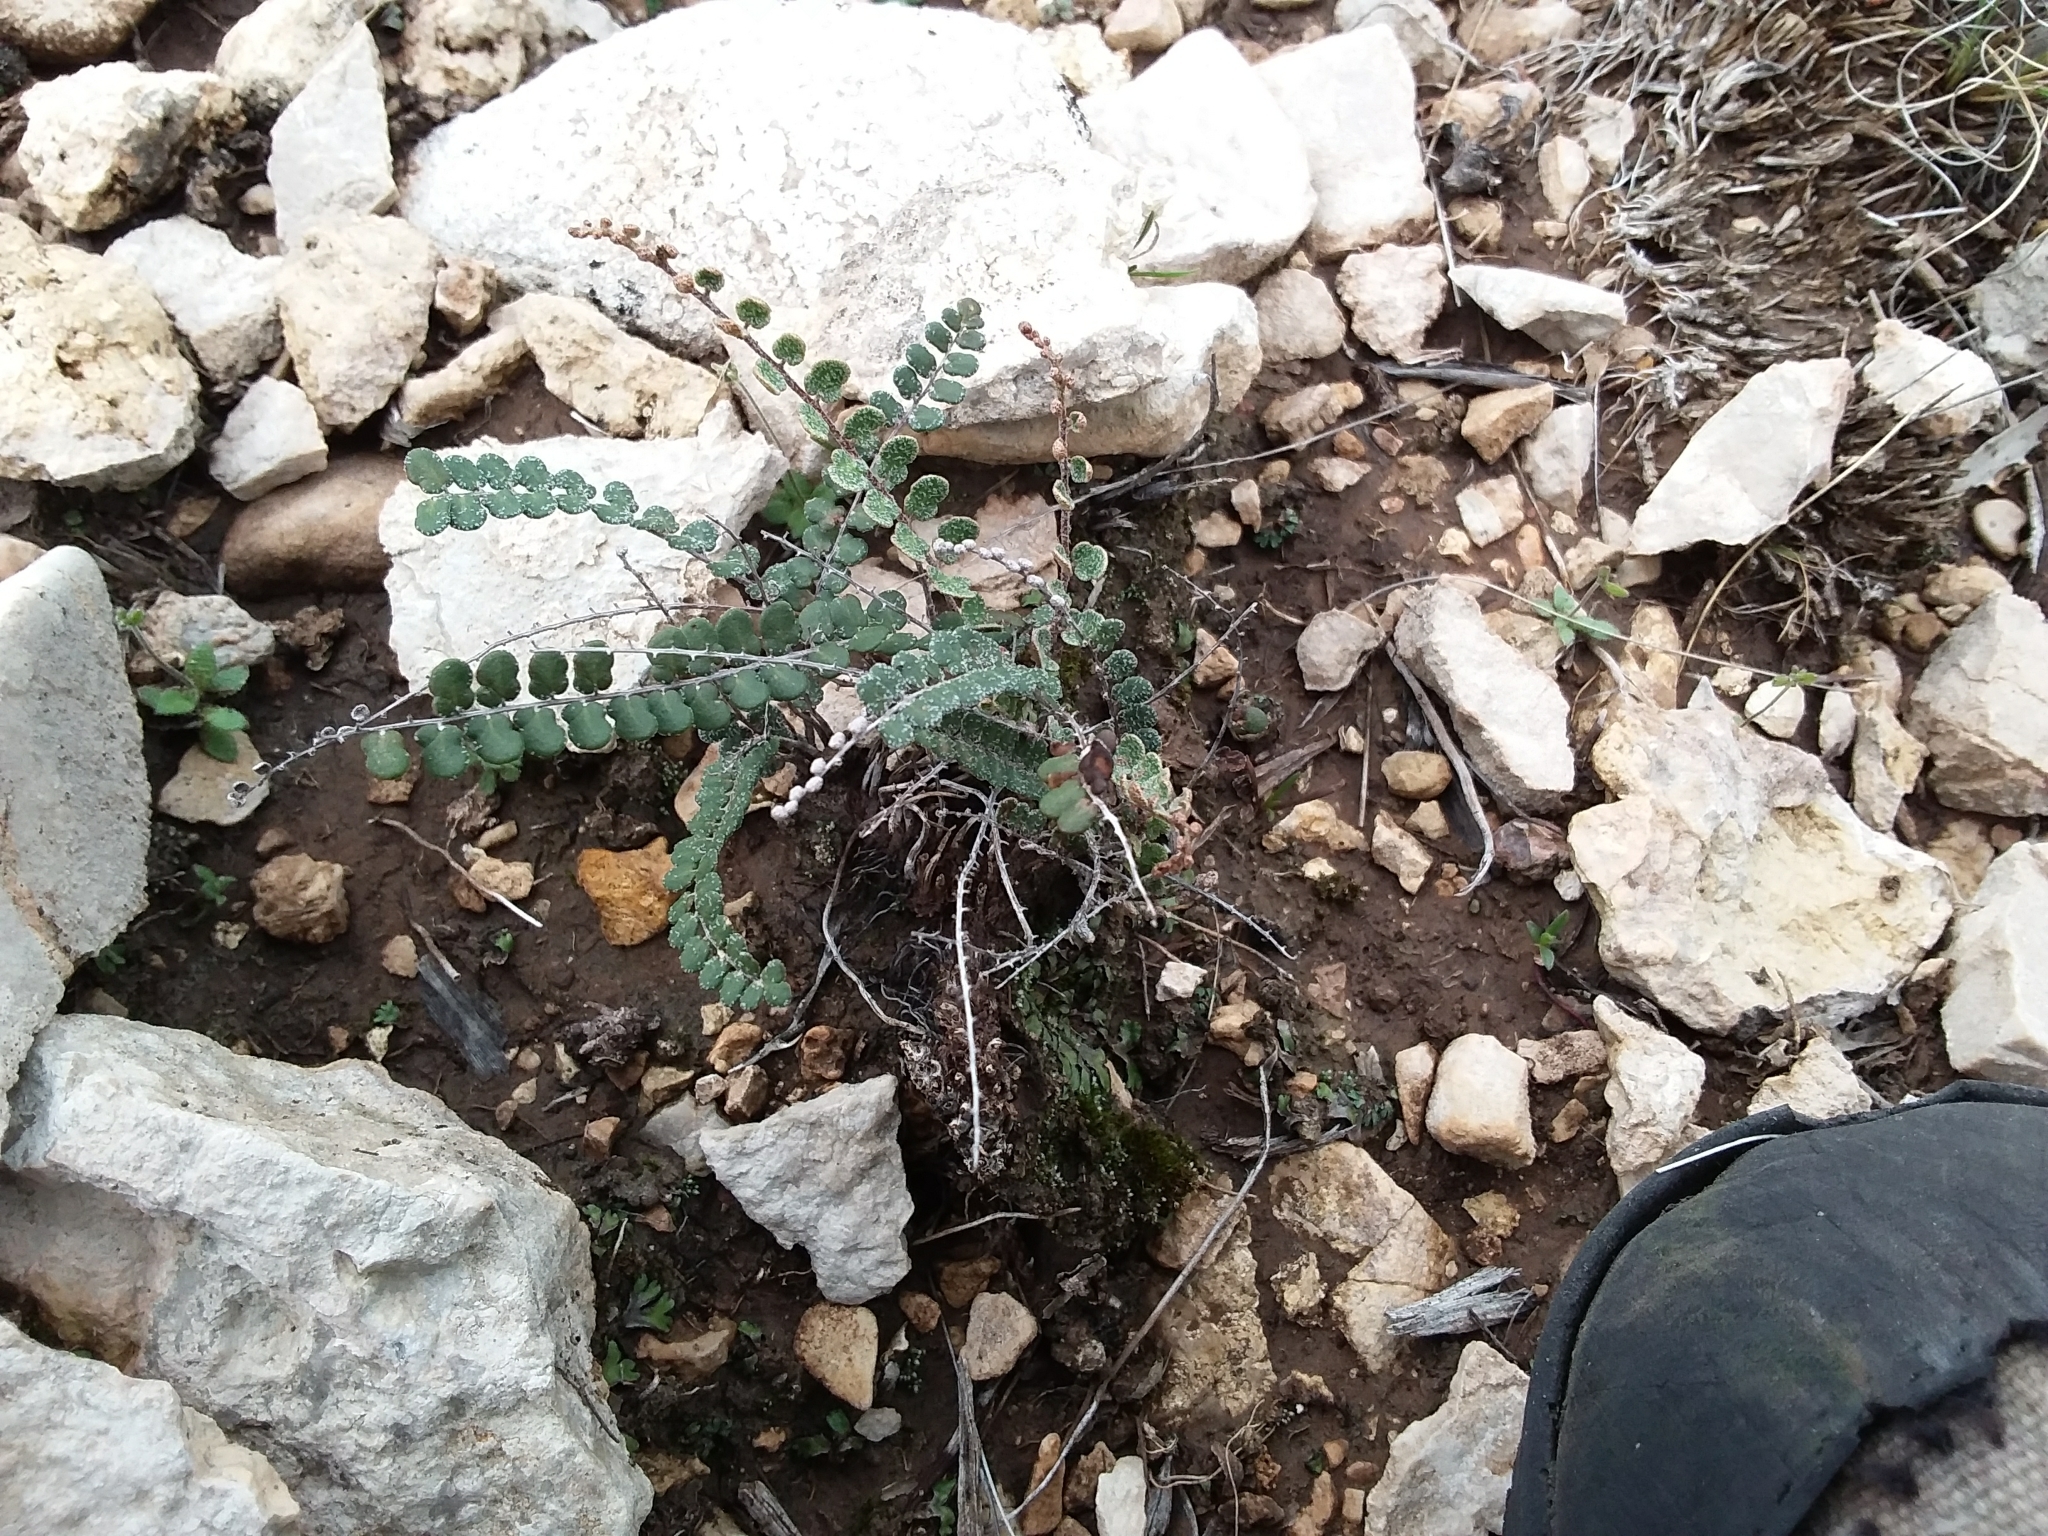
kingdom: Plantae
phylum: Tracheophyta
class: Polypodiopsida
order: Polypodiales
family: Pteridaceae
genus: Astrolepis
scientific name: Astrolepis cochisensis
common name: Scaly cloak fern
